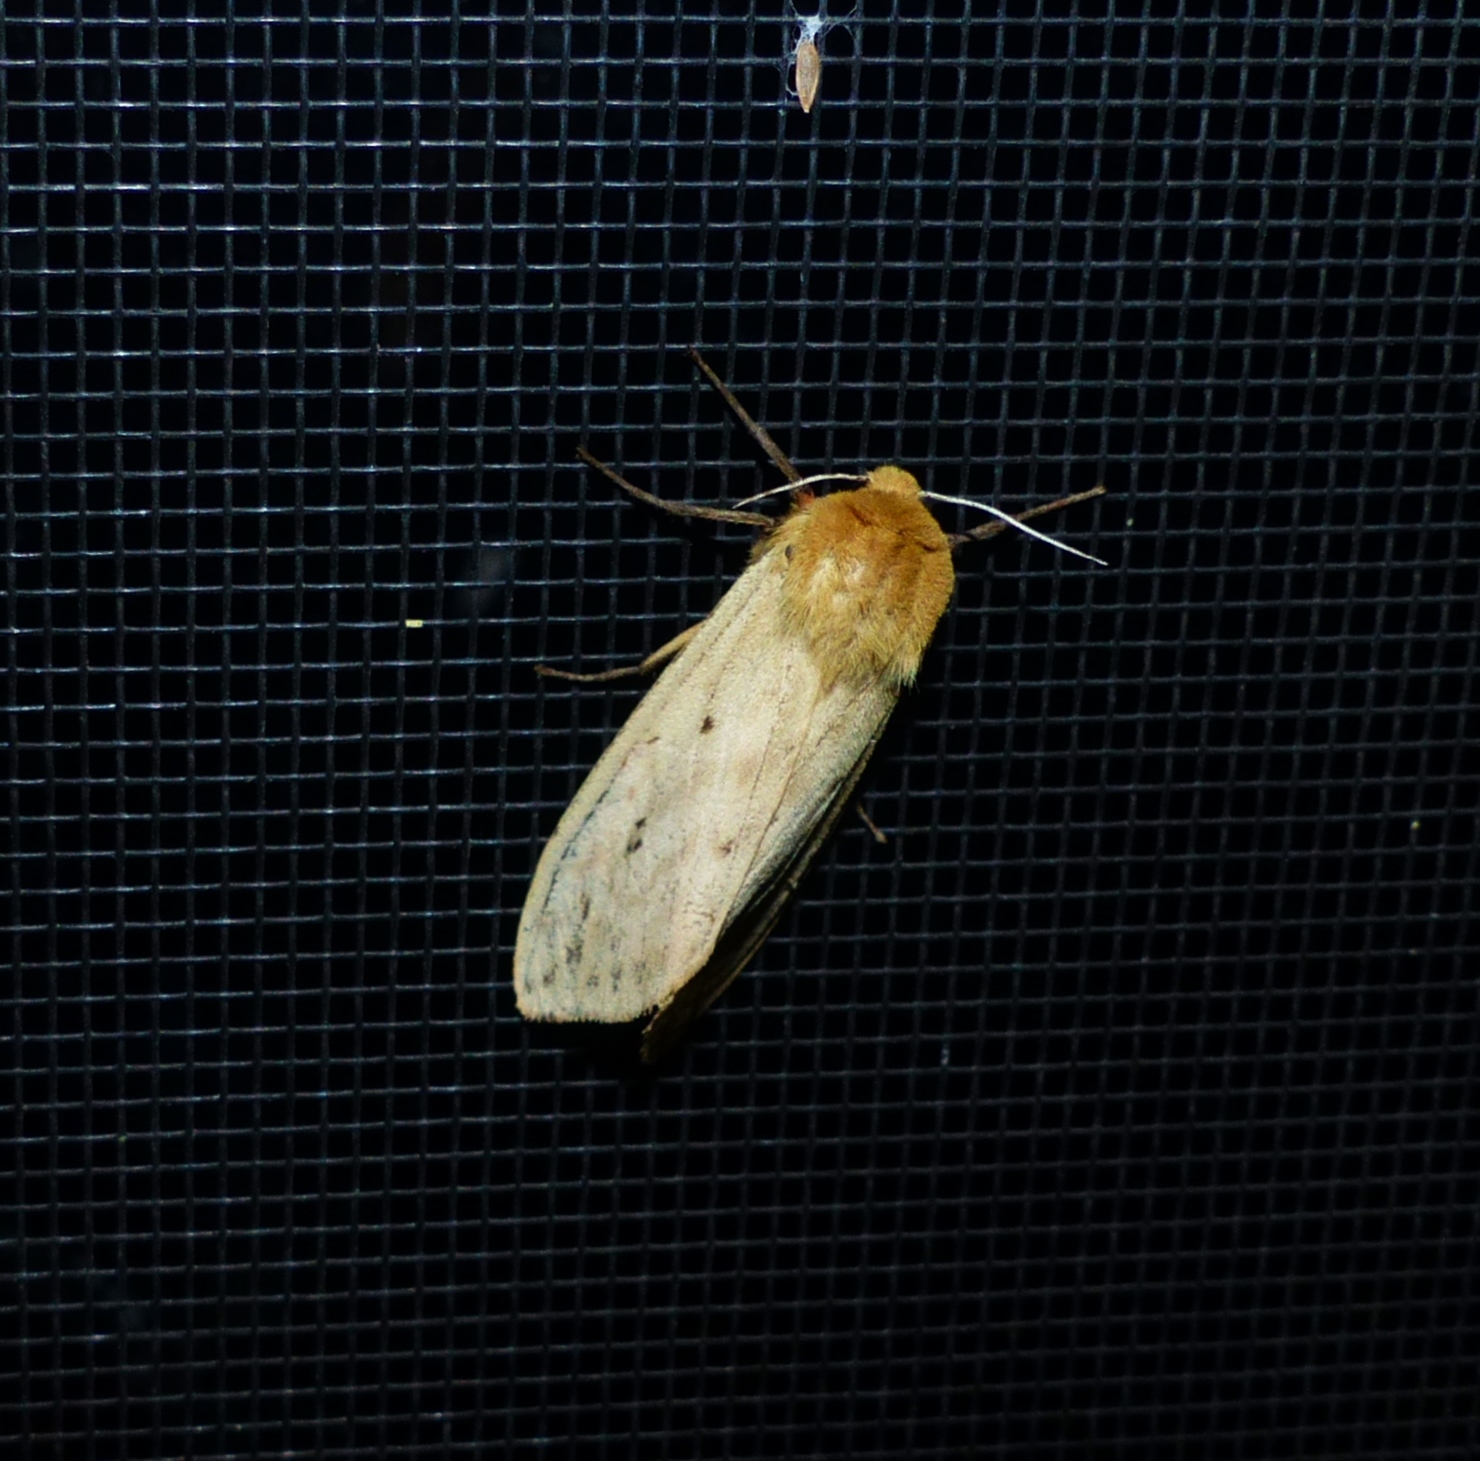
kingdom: Animalia
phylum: Arthropoda
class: Insecta
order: Lepidoptera
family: Erebidae
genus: Pyrrharctia
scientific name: Pyrrharctia isabella
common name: Isabella tiger moth
